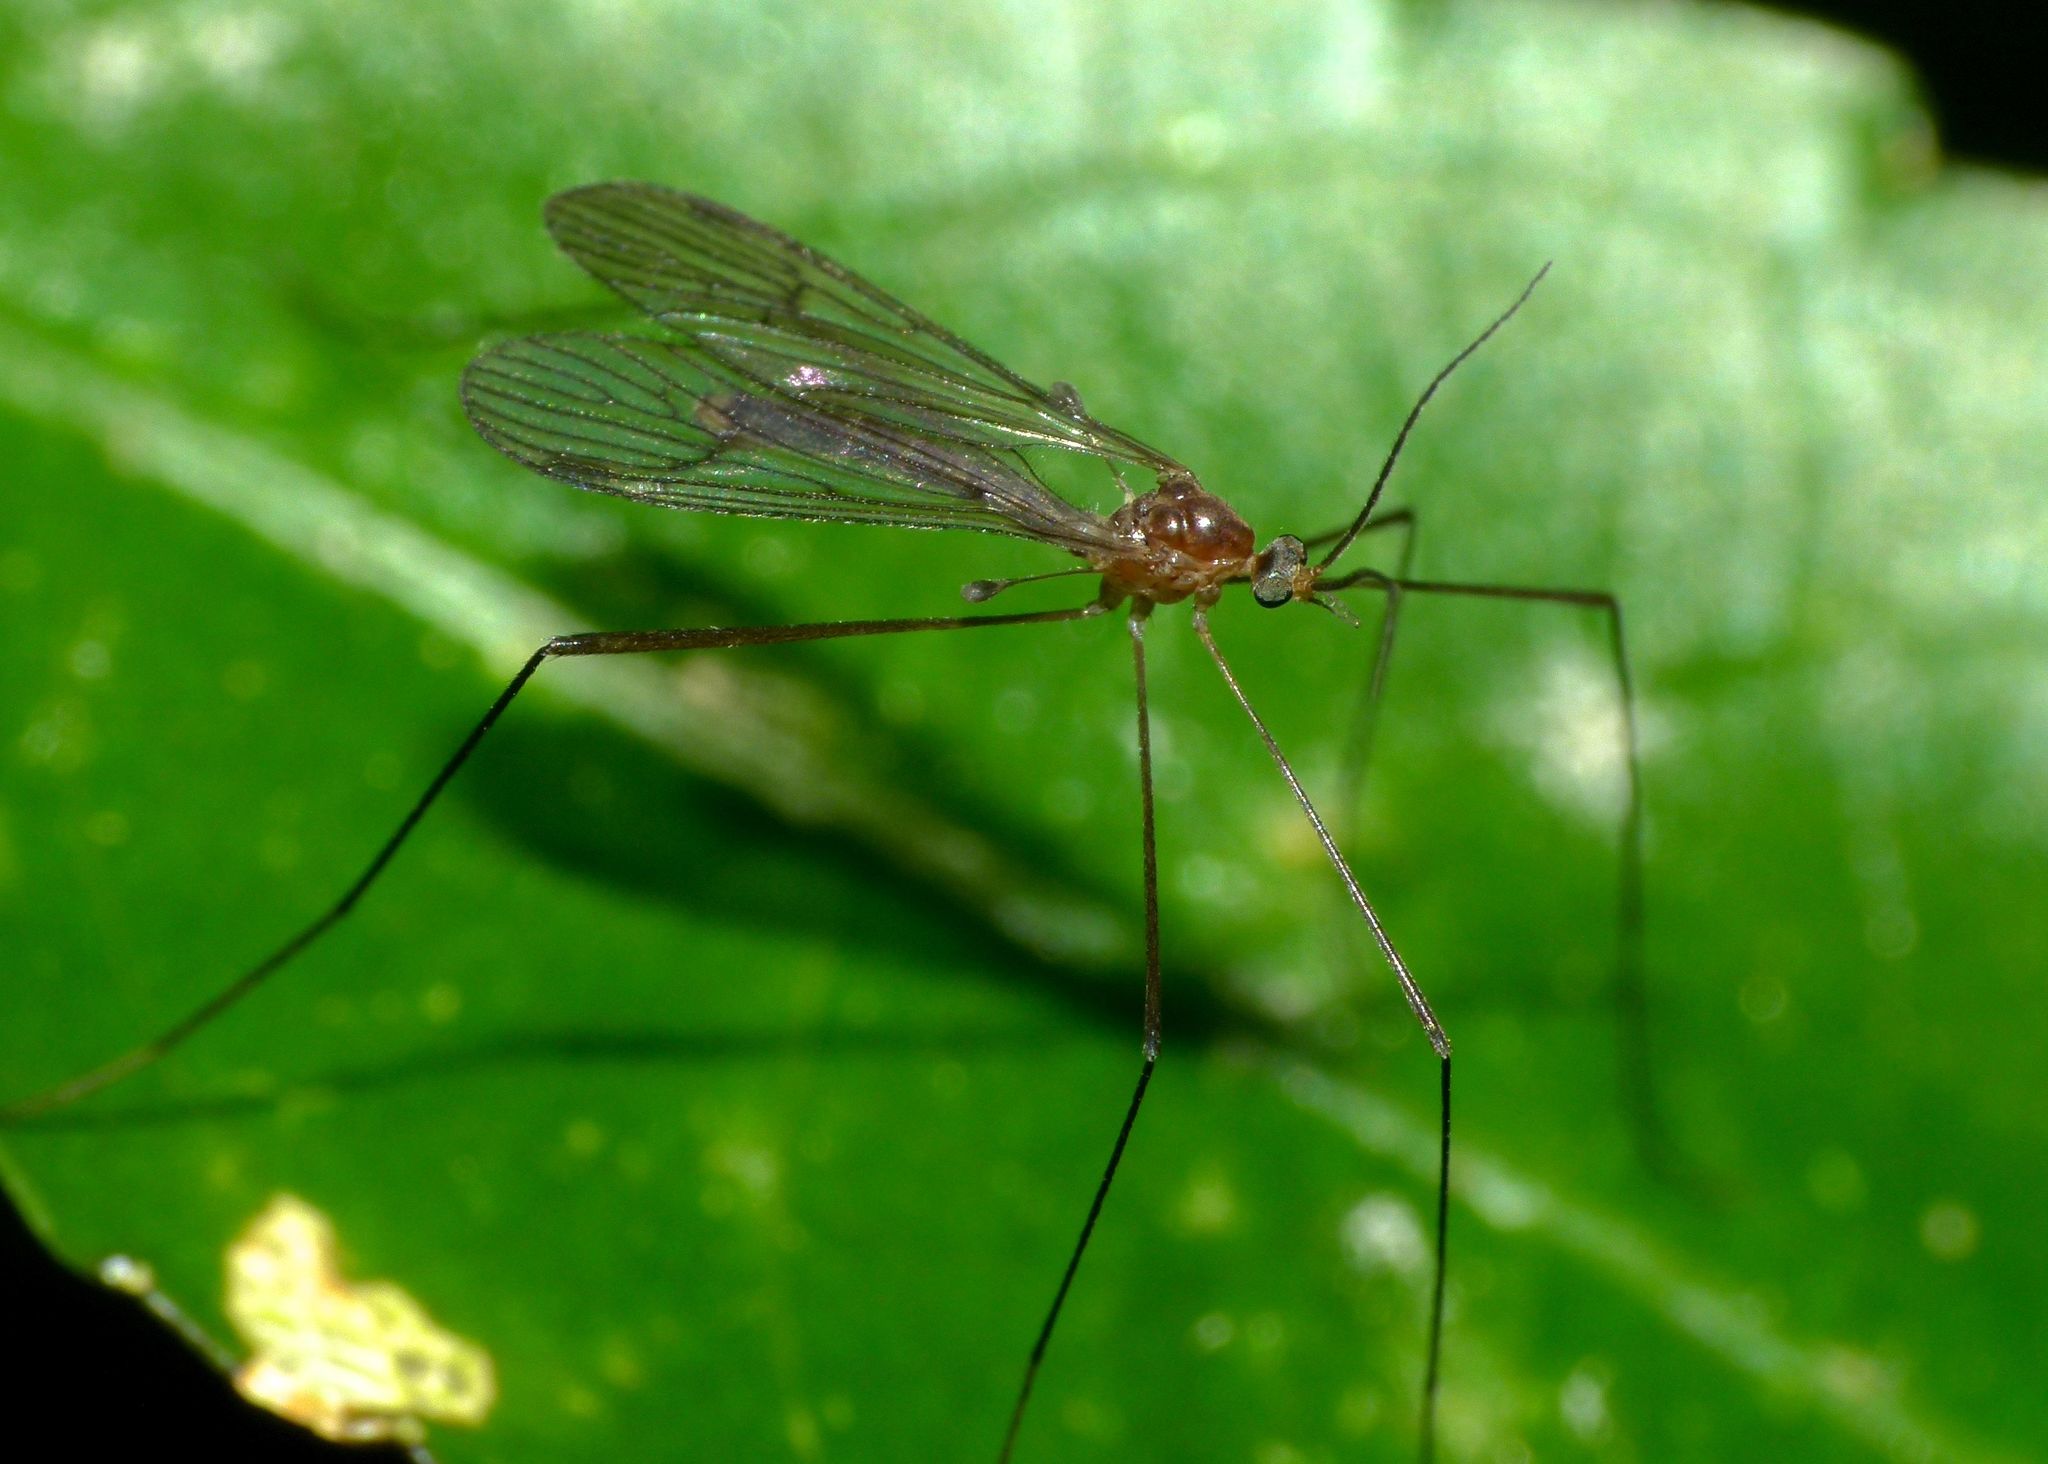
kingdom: Animalia
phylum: Arthropoda
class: Insecta
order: Diptera
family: Limoniidae
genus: Acantholimnophila
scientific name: Acantholimnophila maorica
